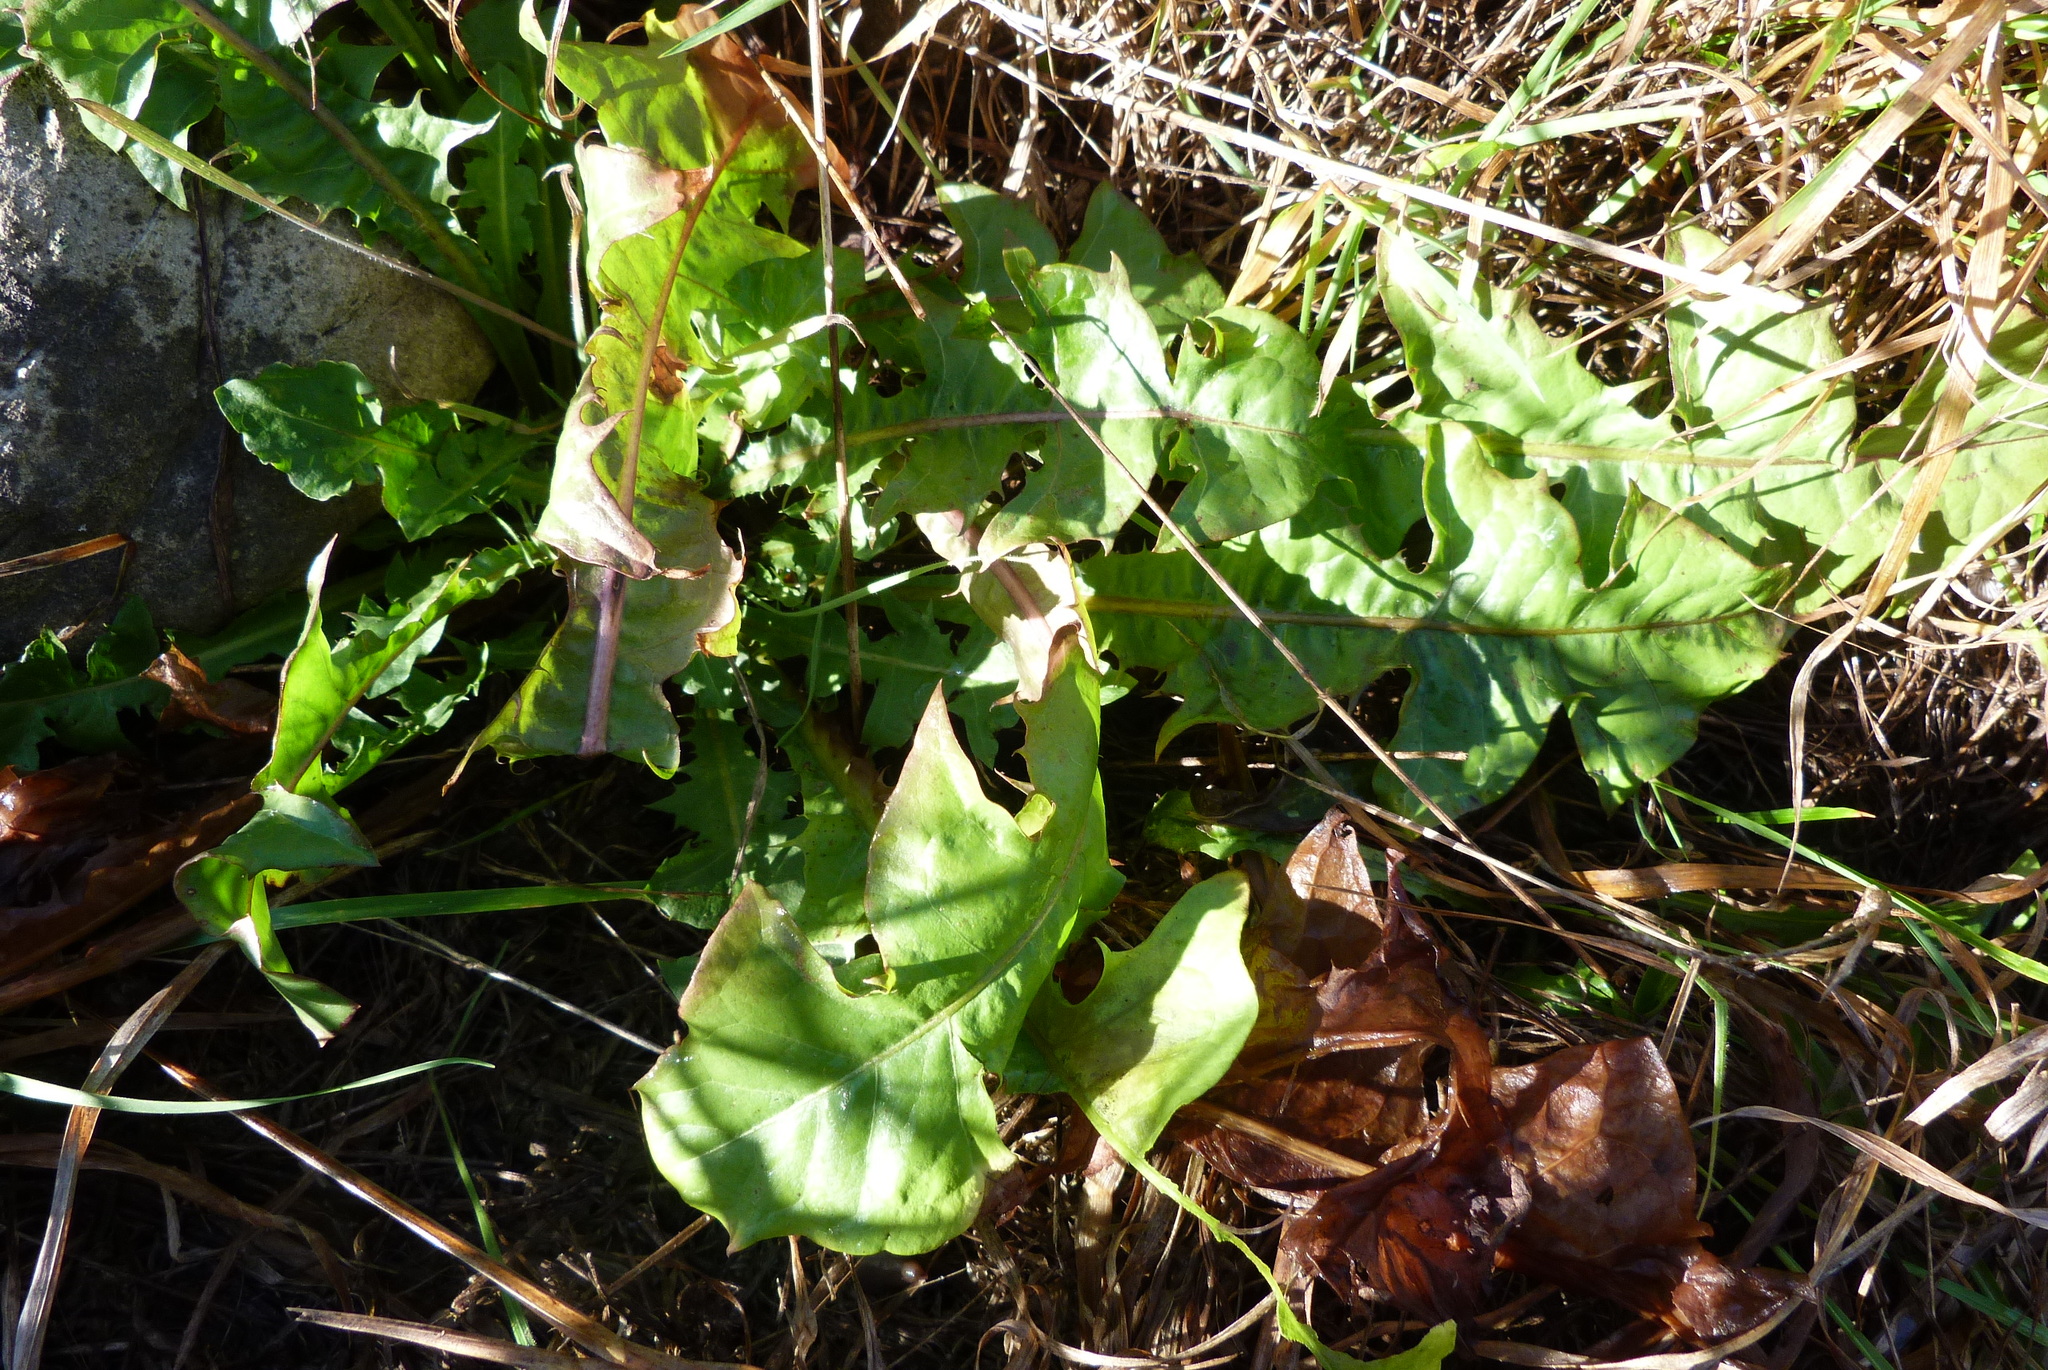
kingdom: Plantae
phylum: Tracheophyta
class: Magnoliopsida
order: Asterales
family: Asteraceae
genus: Taraxacum
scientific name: Taraxacum officinale
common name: Common dandelion
